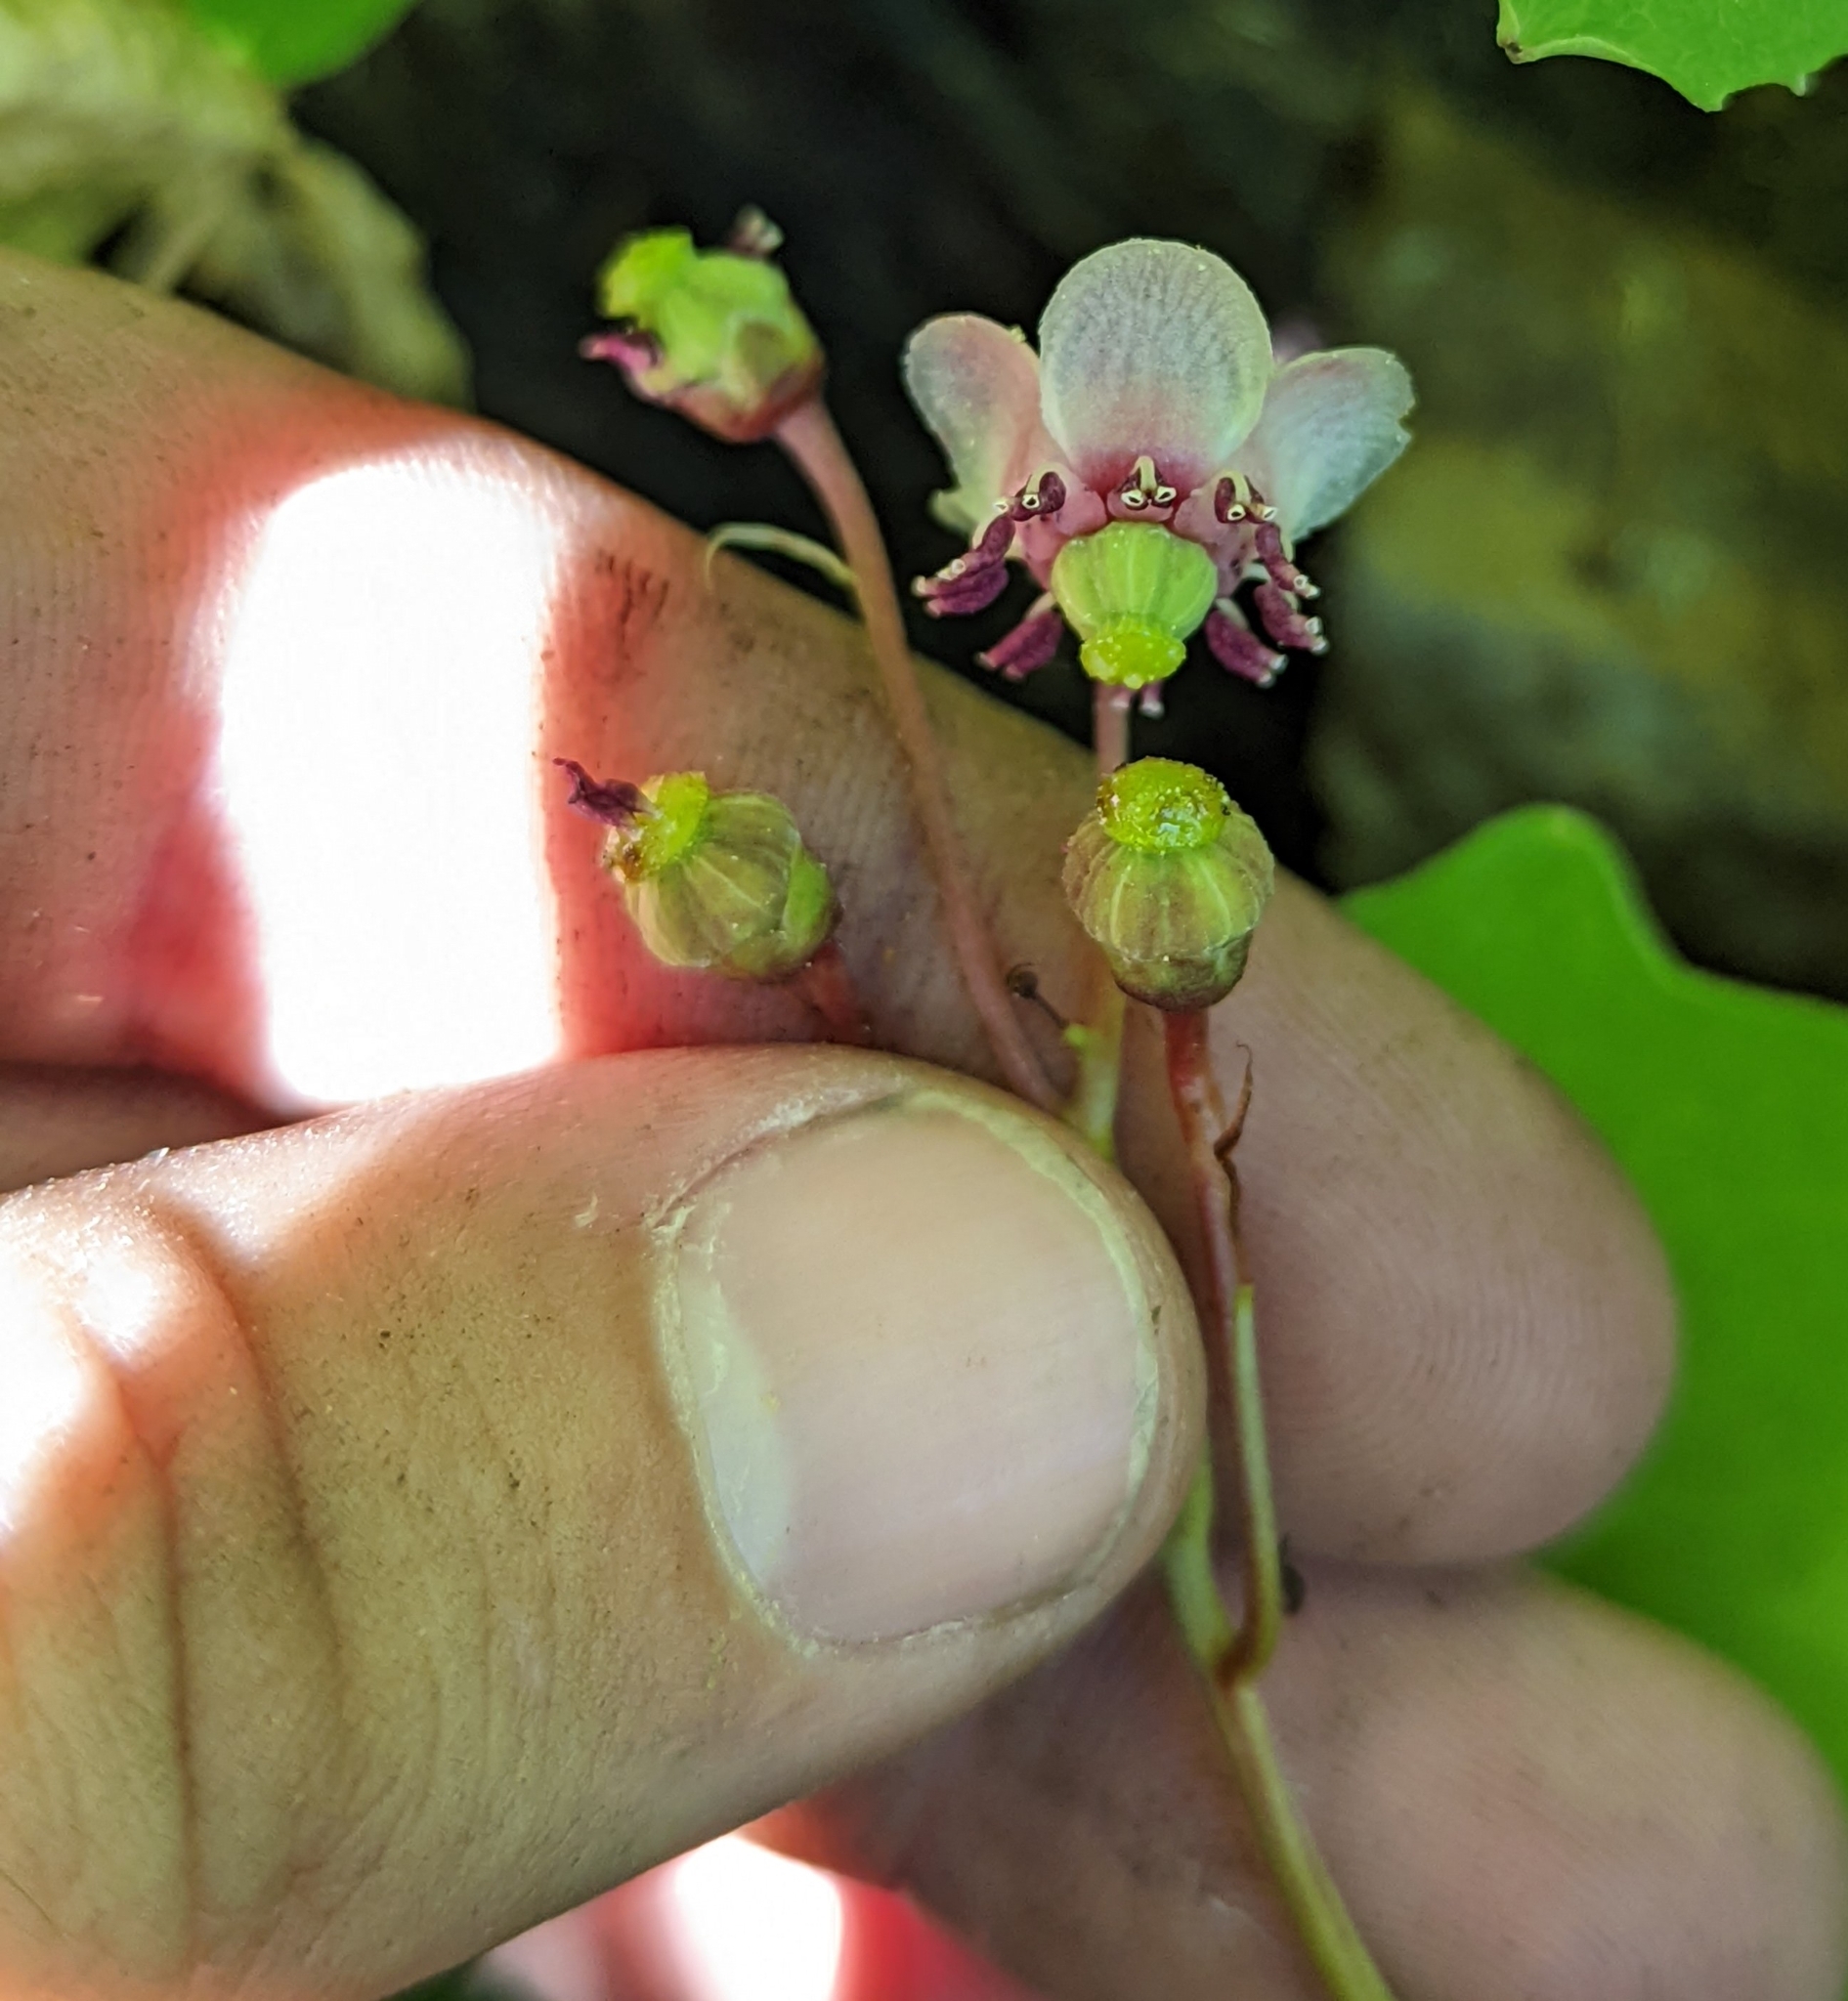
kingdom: Plantae
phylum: Tracheophyta
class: Magnoliopsida
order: Ericales
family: Ericaceae
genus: Chimaphila
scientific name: Chimaphila umbellata
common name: Pipsissewa
